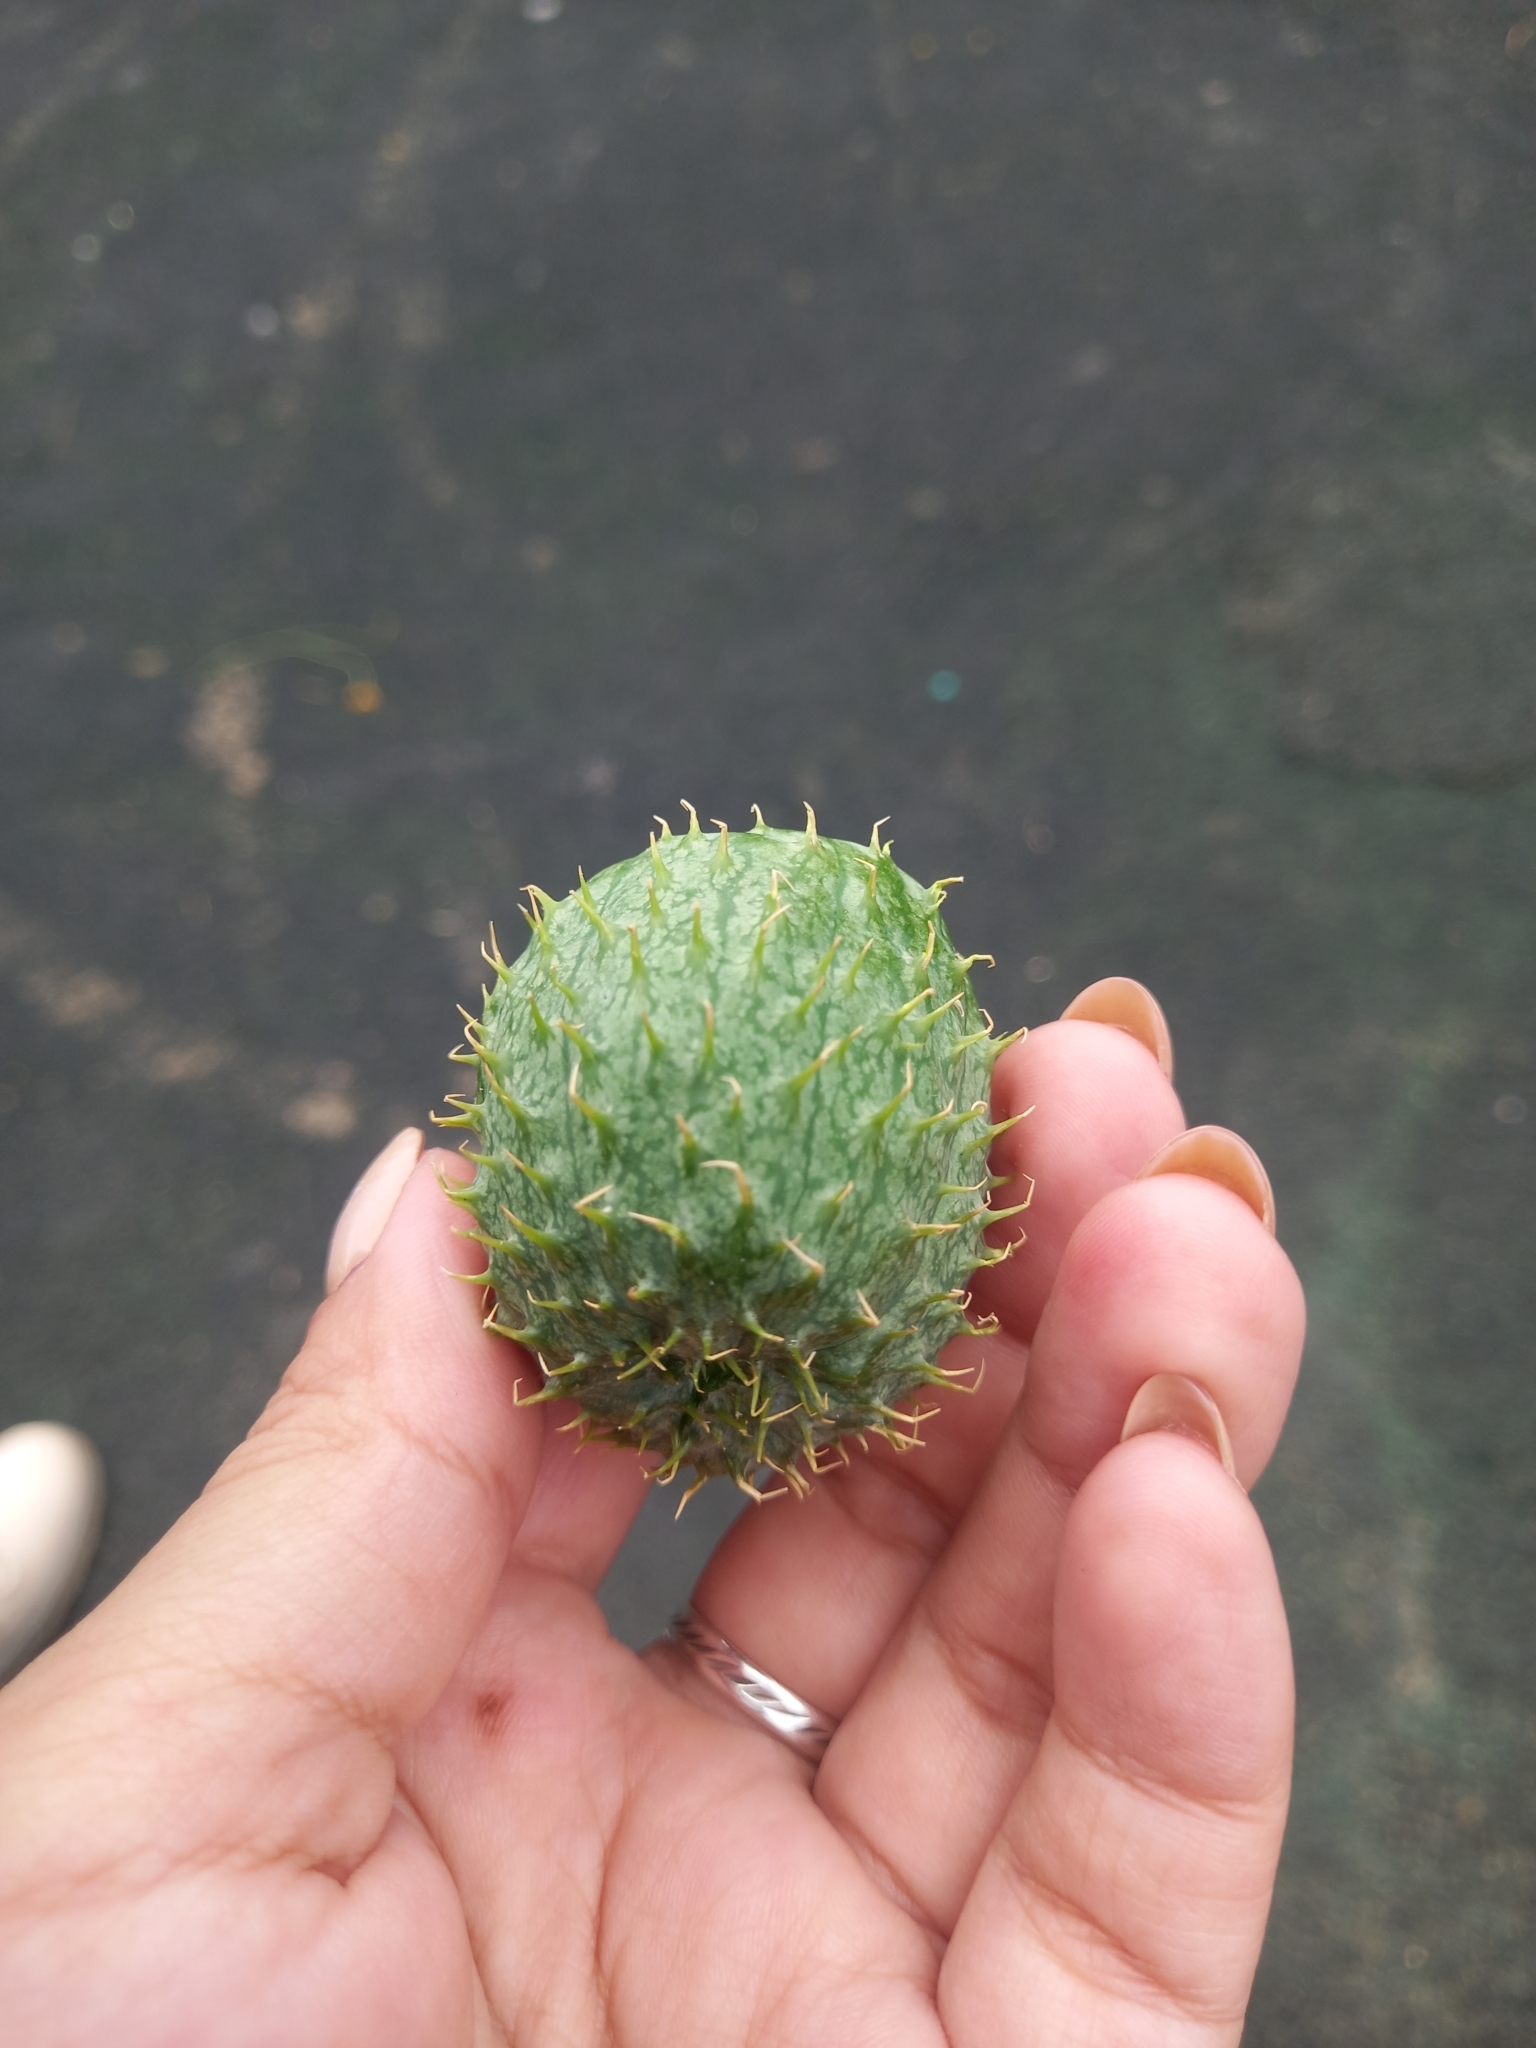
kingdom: Plantae
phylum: Tracheophyta
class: Magnoliopsida
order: Cucurbitales
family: Cucurbitaceae
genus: Echinocystis
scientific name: Echinocystis lobata
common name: Wild cucumber
